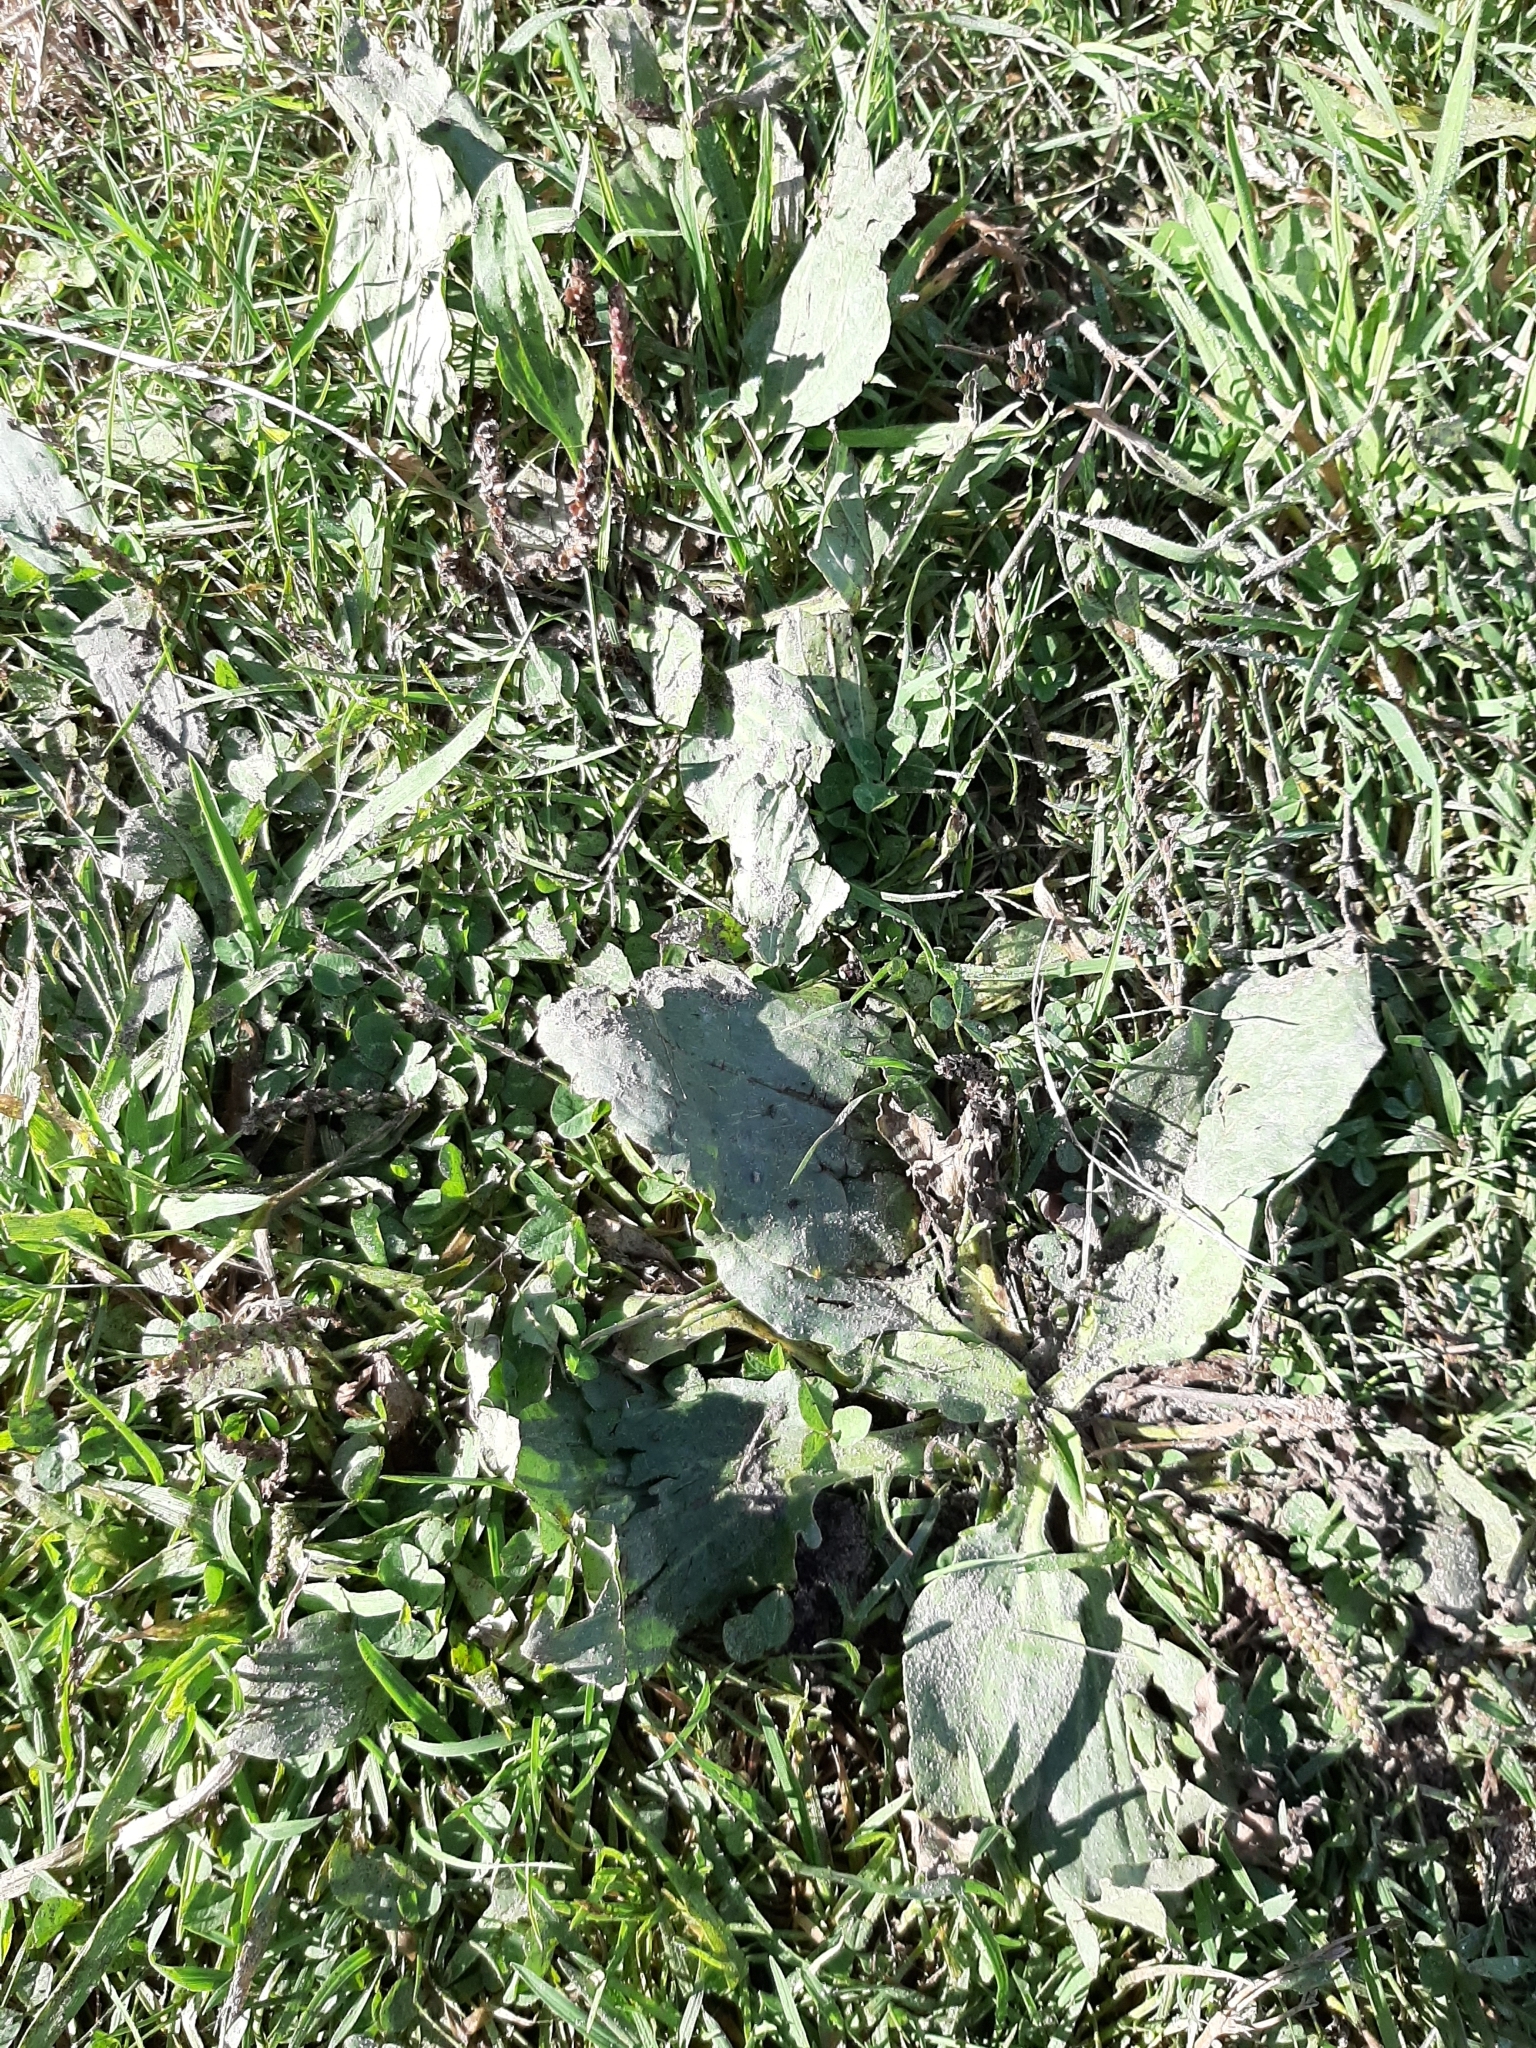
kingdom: Plantae
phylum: Tracheophyta
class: Magnoliopsida
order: Lamiales
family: Plantaginaceae
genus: Plantago
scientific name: Plantago major
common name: Common plantain
